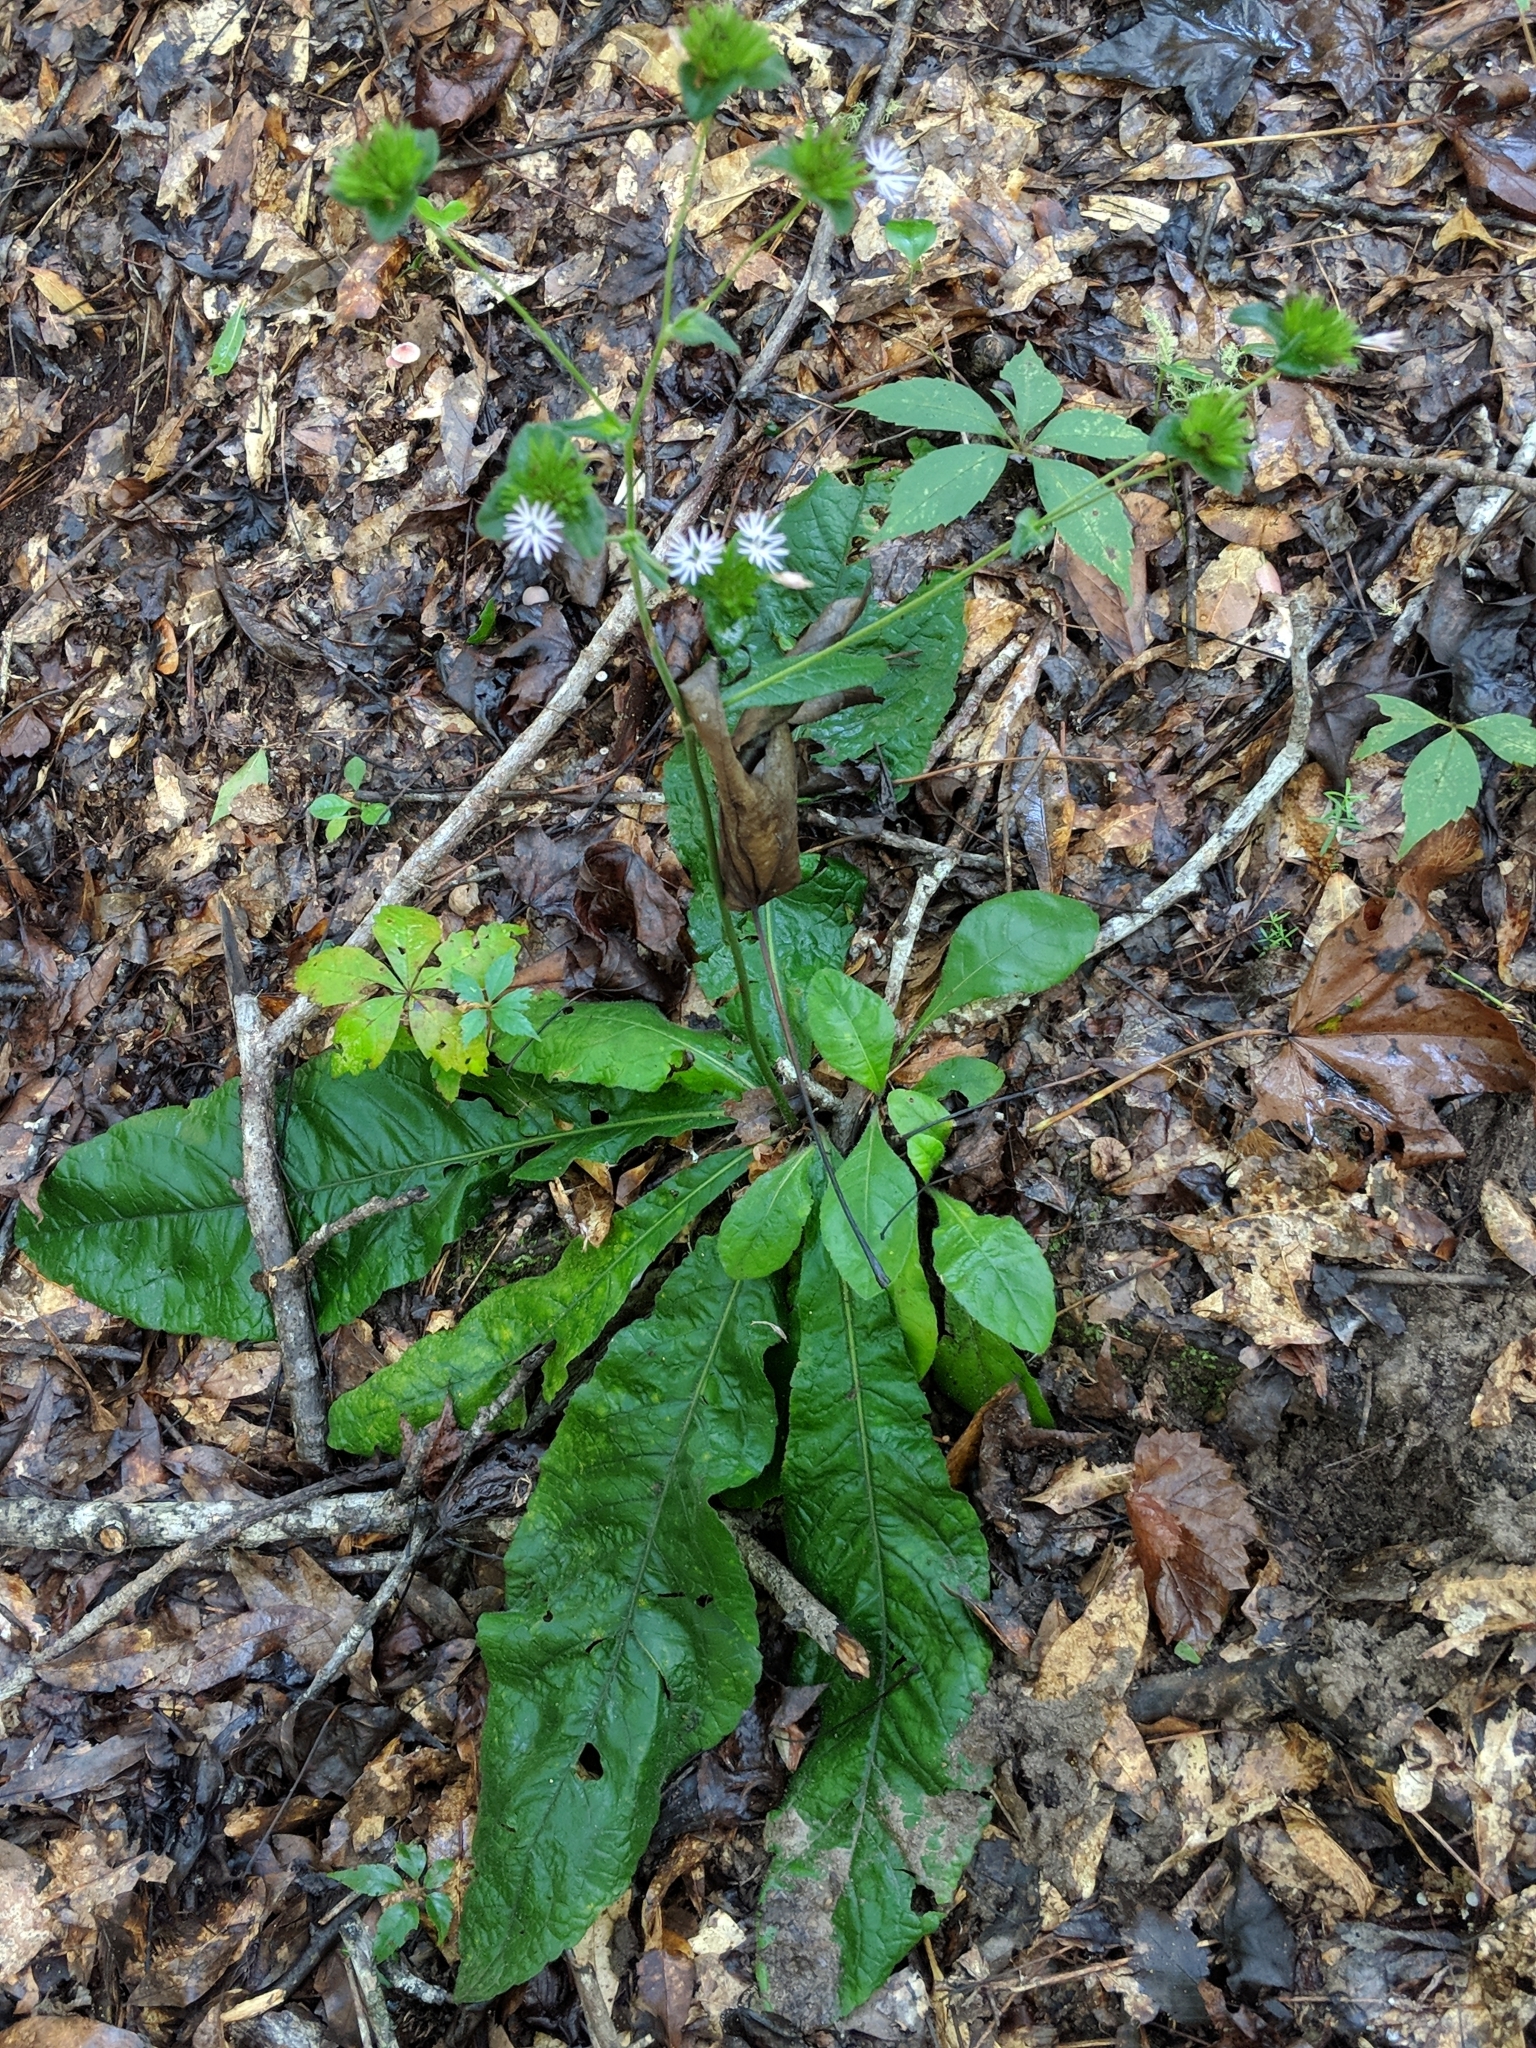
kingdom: Plantae
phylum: Tracheophyta
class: Magnoliopsida
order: Asterales
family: Asteraceae
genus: Elephantopus
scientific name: Elephantopus tomentosus
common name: Tobacco-weed
